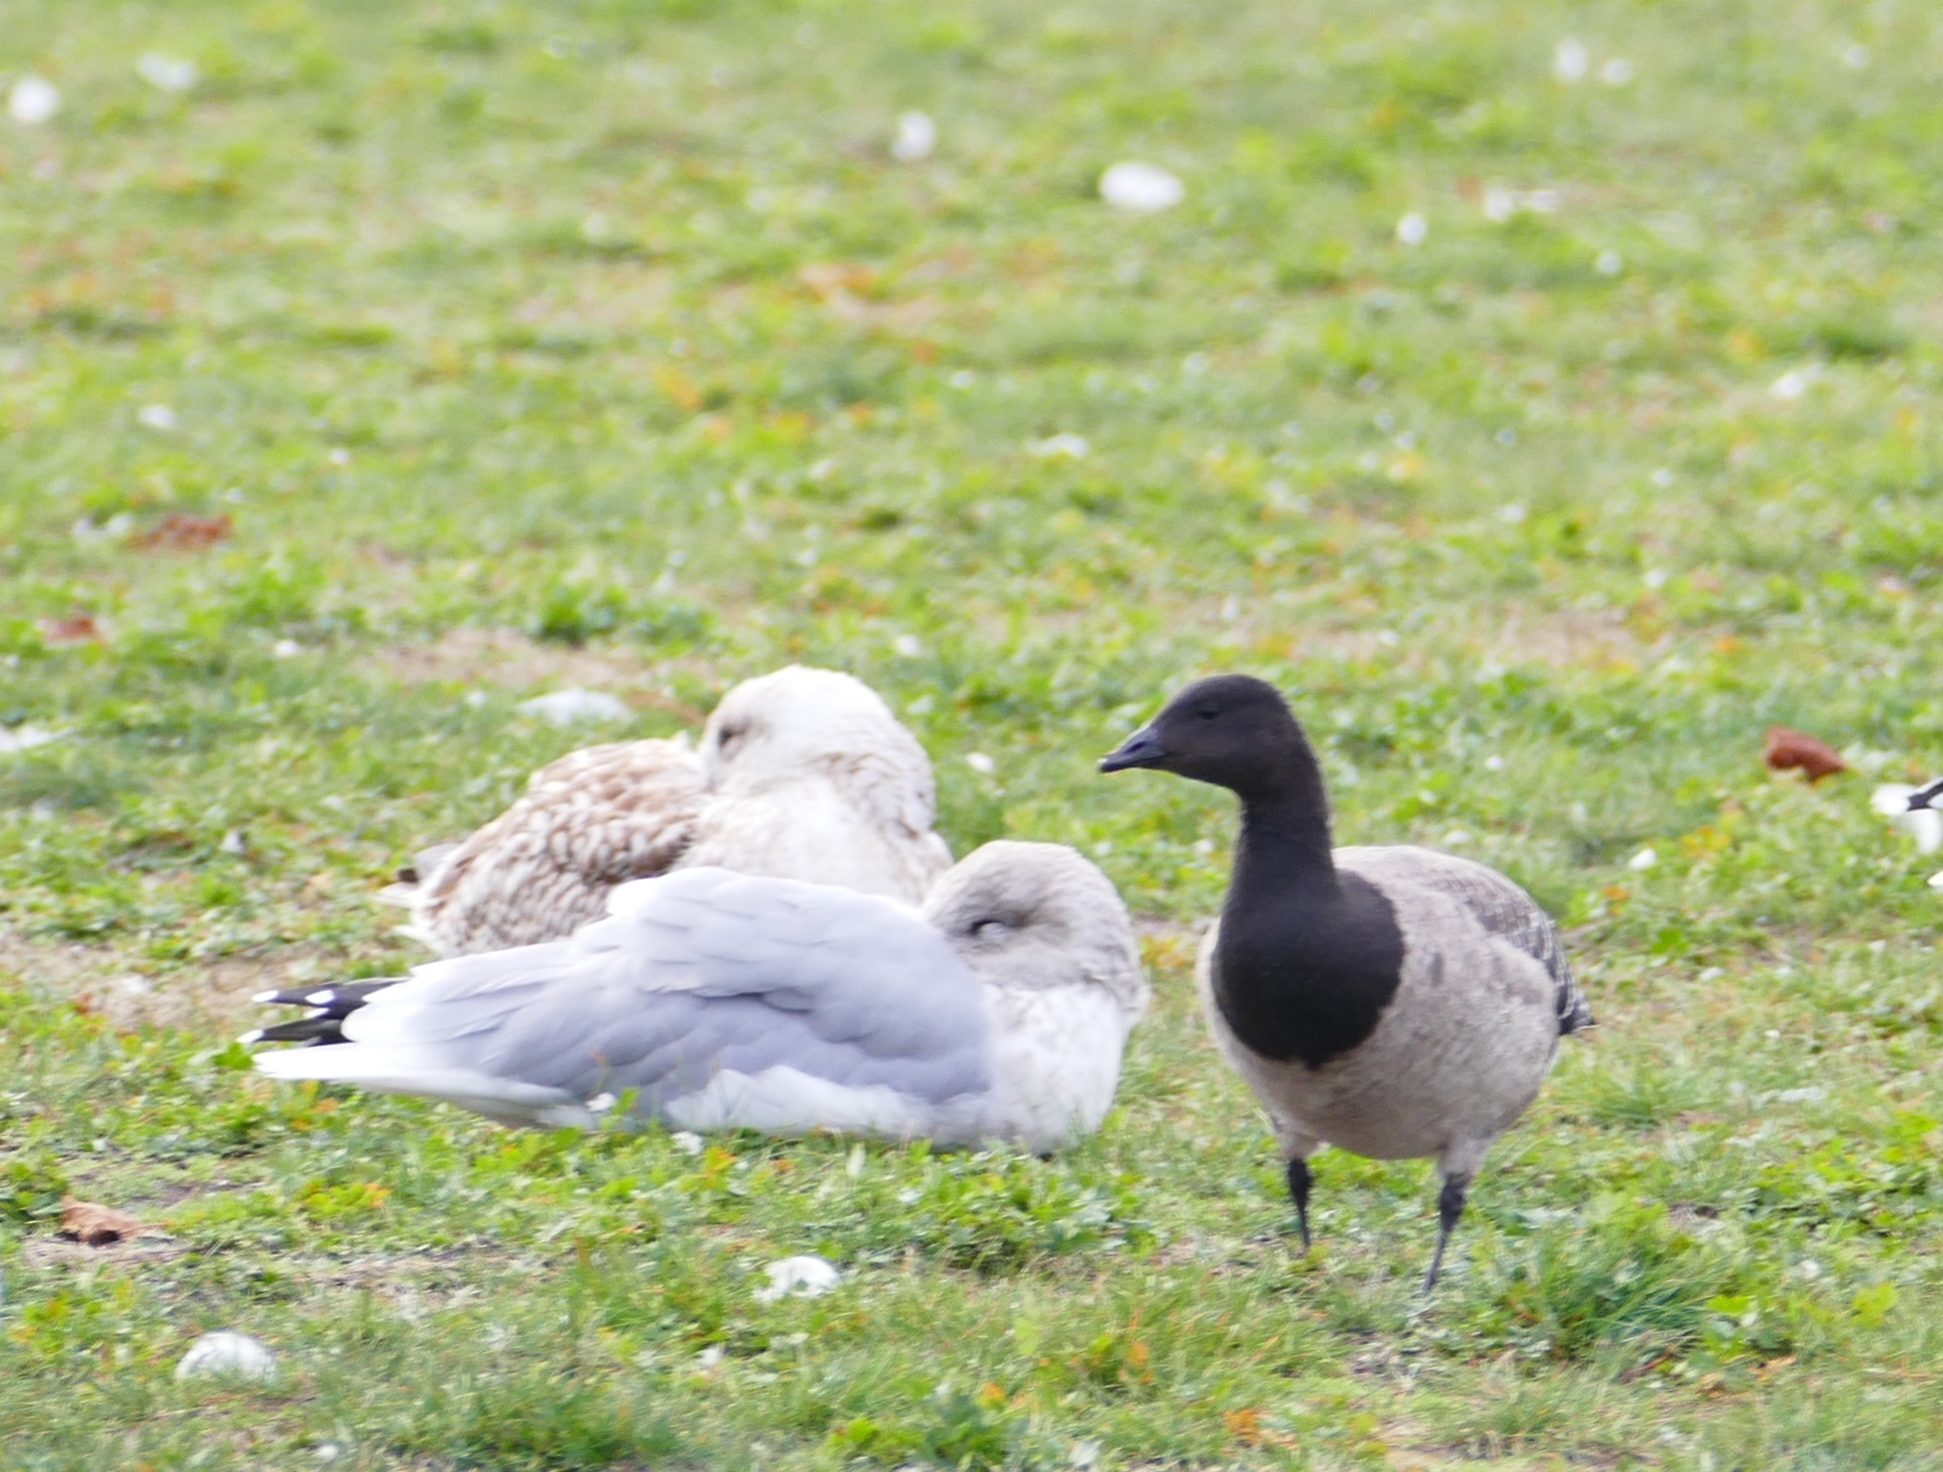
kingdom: Animalia
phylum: Chordata
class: Aves
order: Anseriformes
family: Anatidae
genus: Branta
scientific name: Branta bernicla
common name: Brant goose
